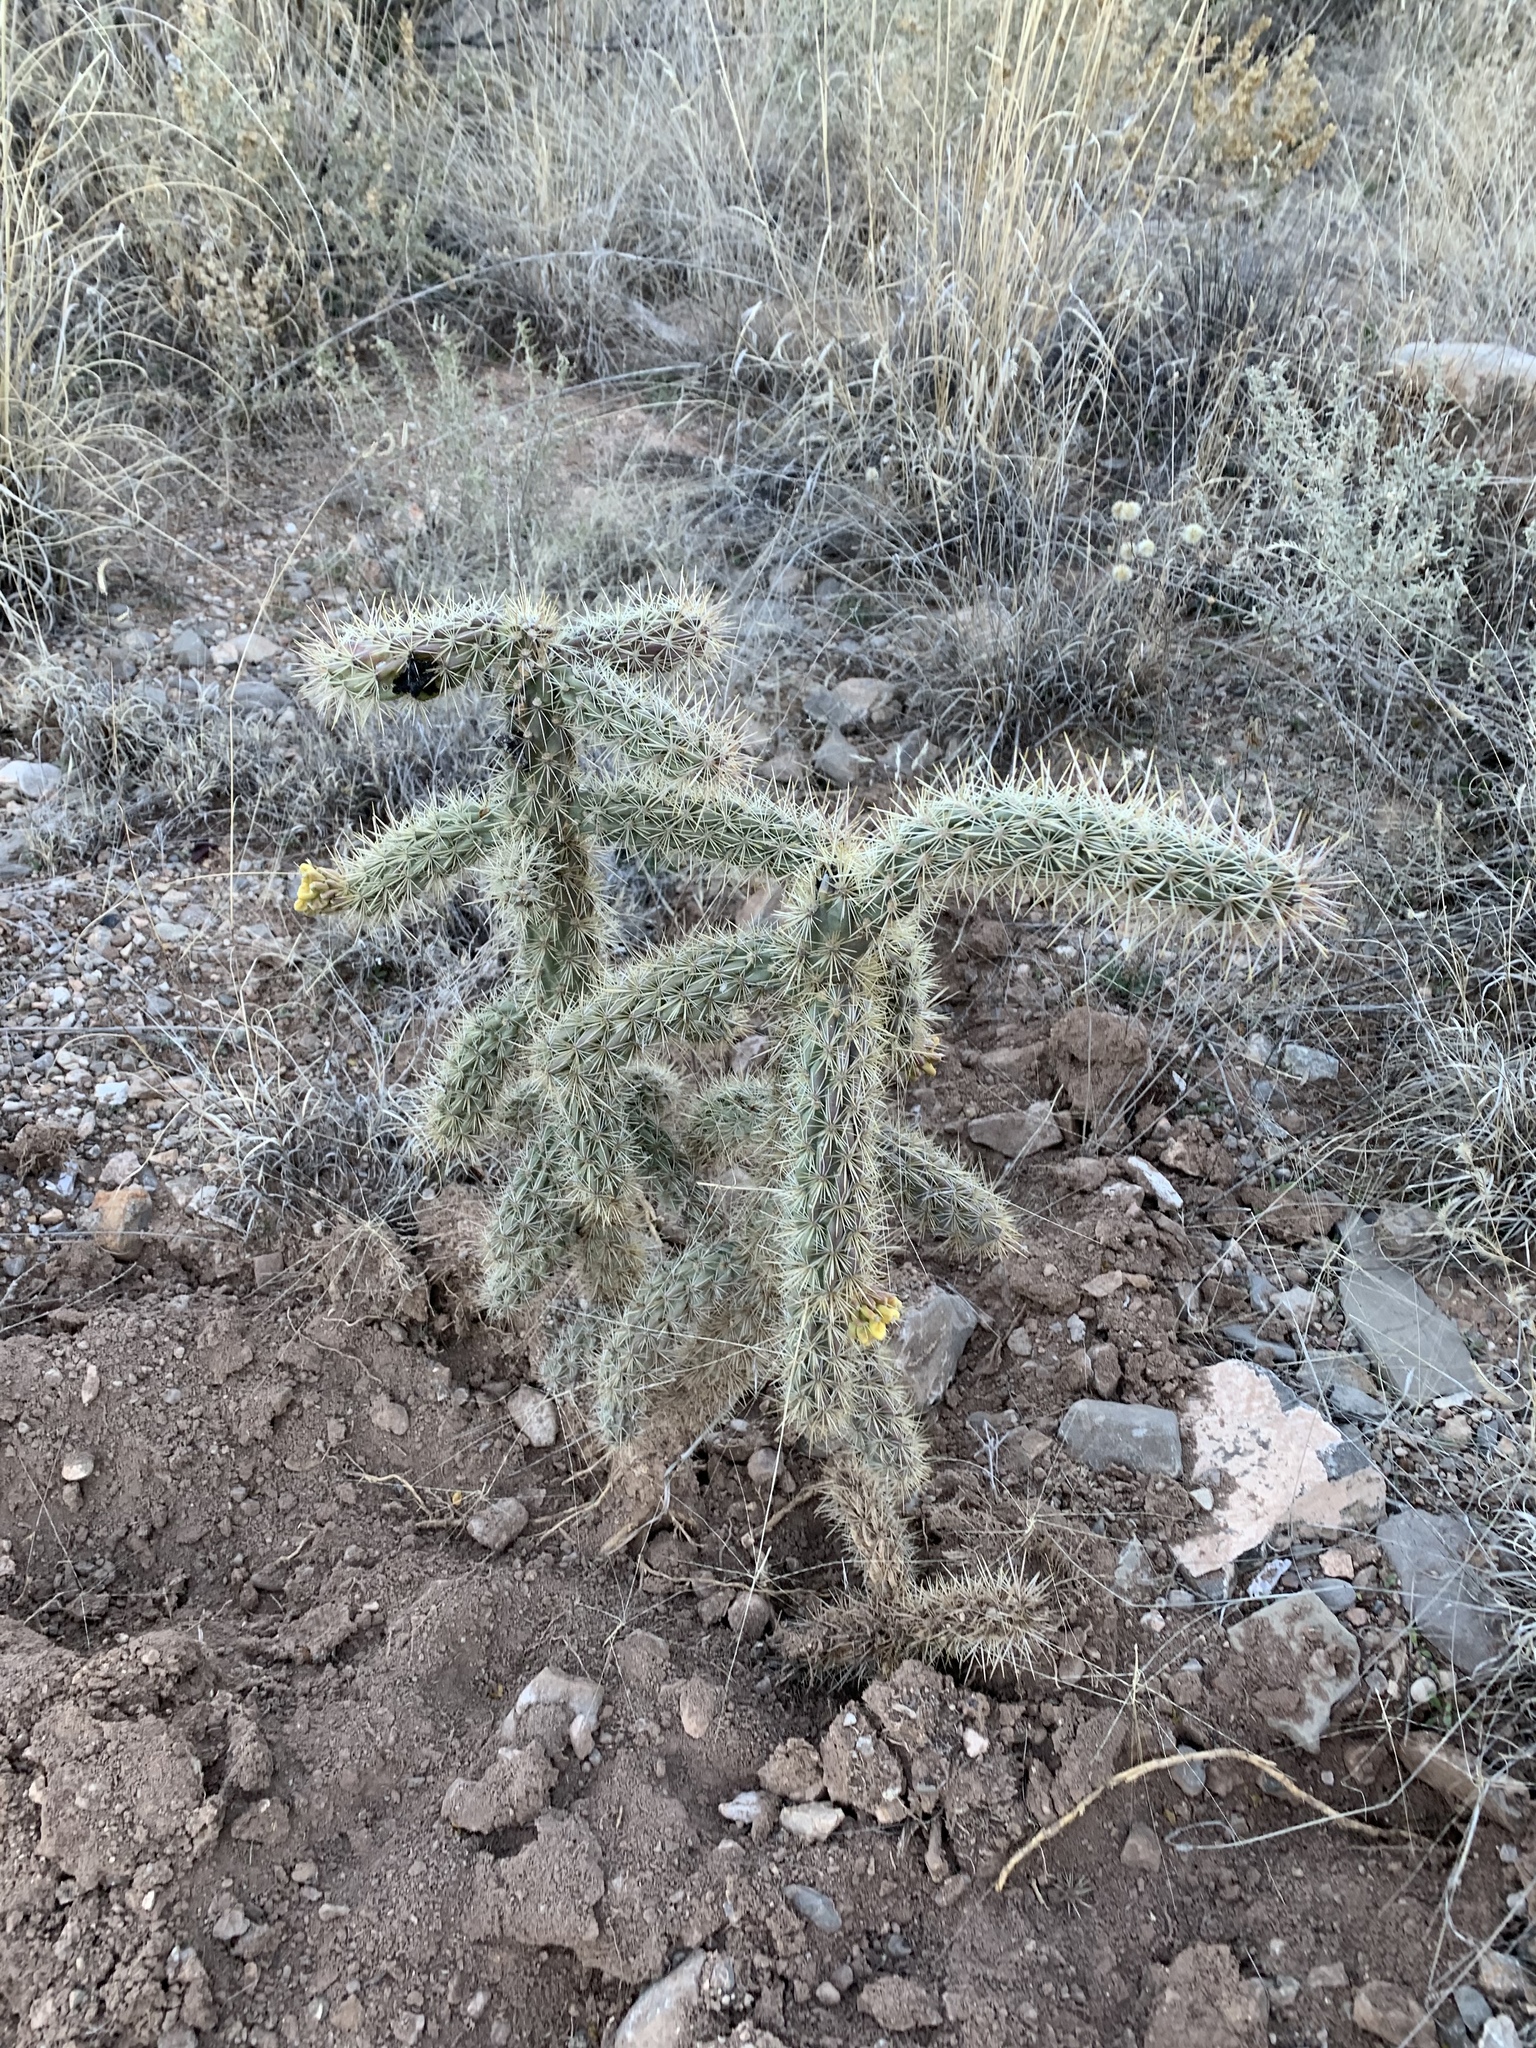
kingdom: Plantae
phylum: Tracheophyta
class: Magnoliopsida
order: Caryophyllales
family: Cactaceae
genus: Cylindropuntia
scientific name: Cylindropuntia imbricata
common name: Candelabrum cactus
